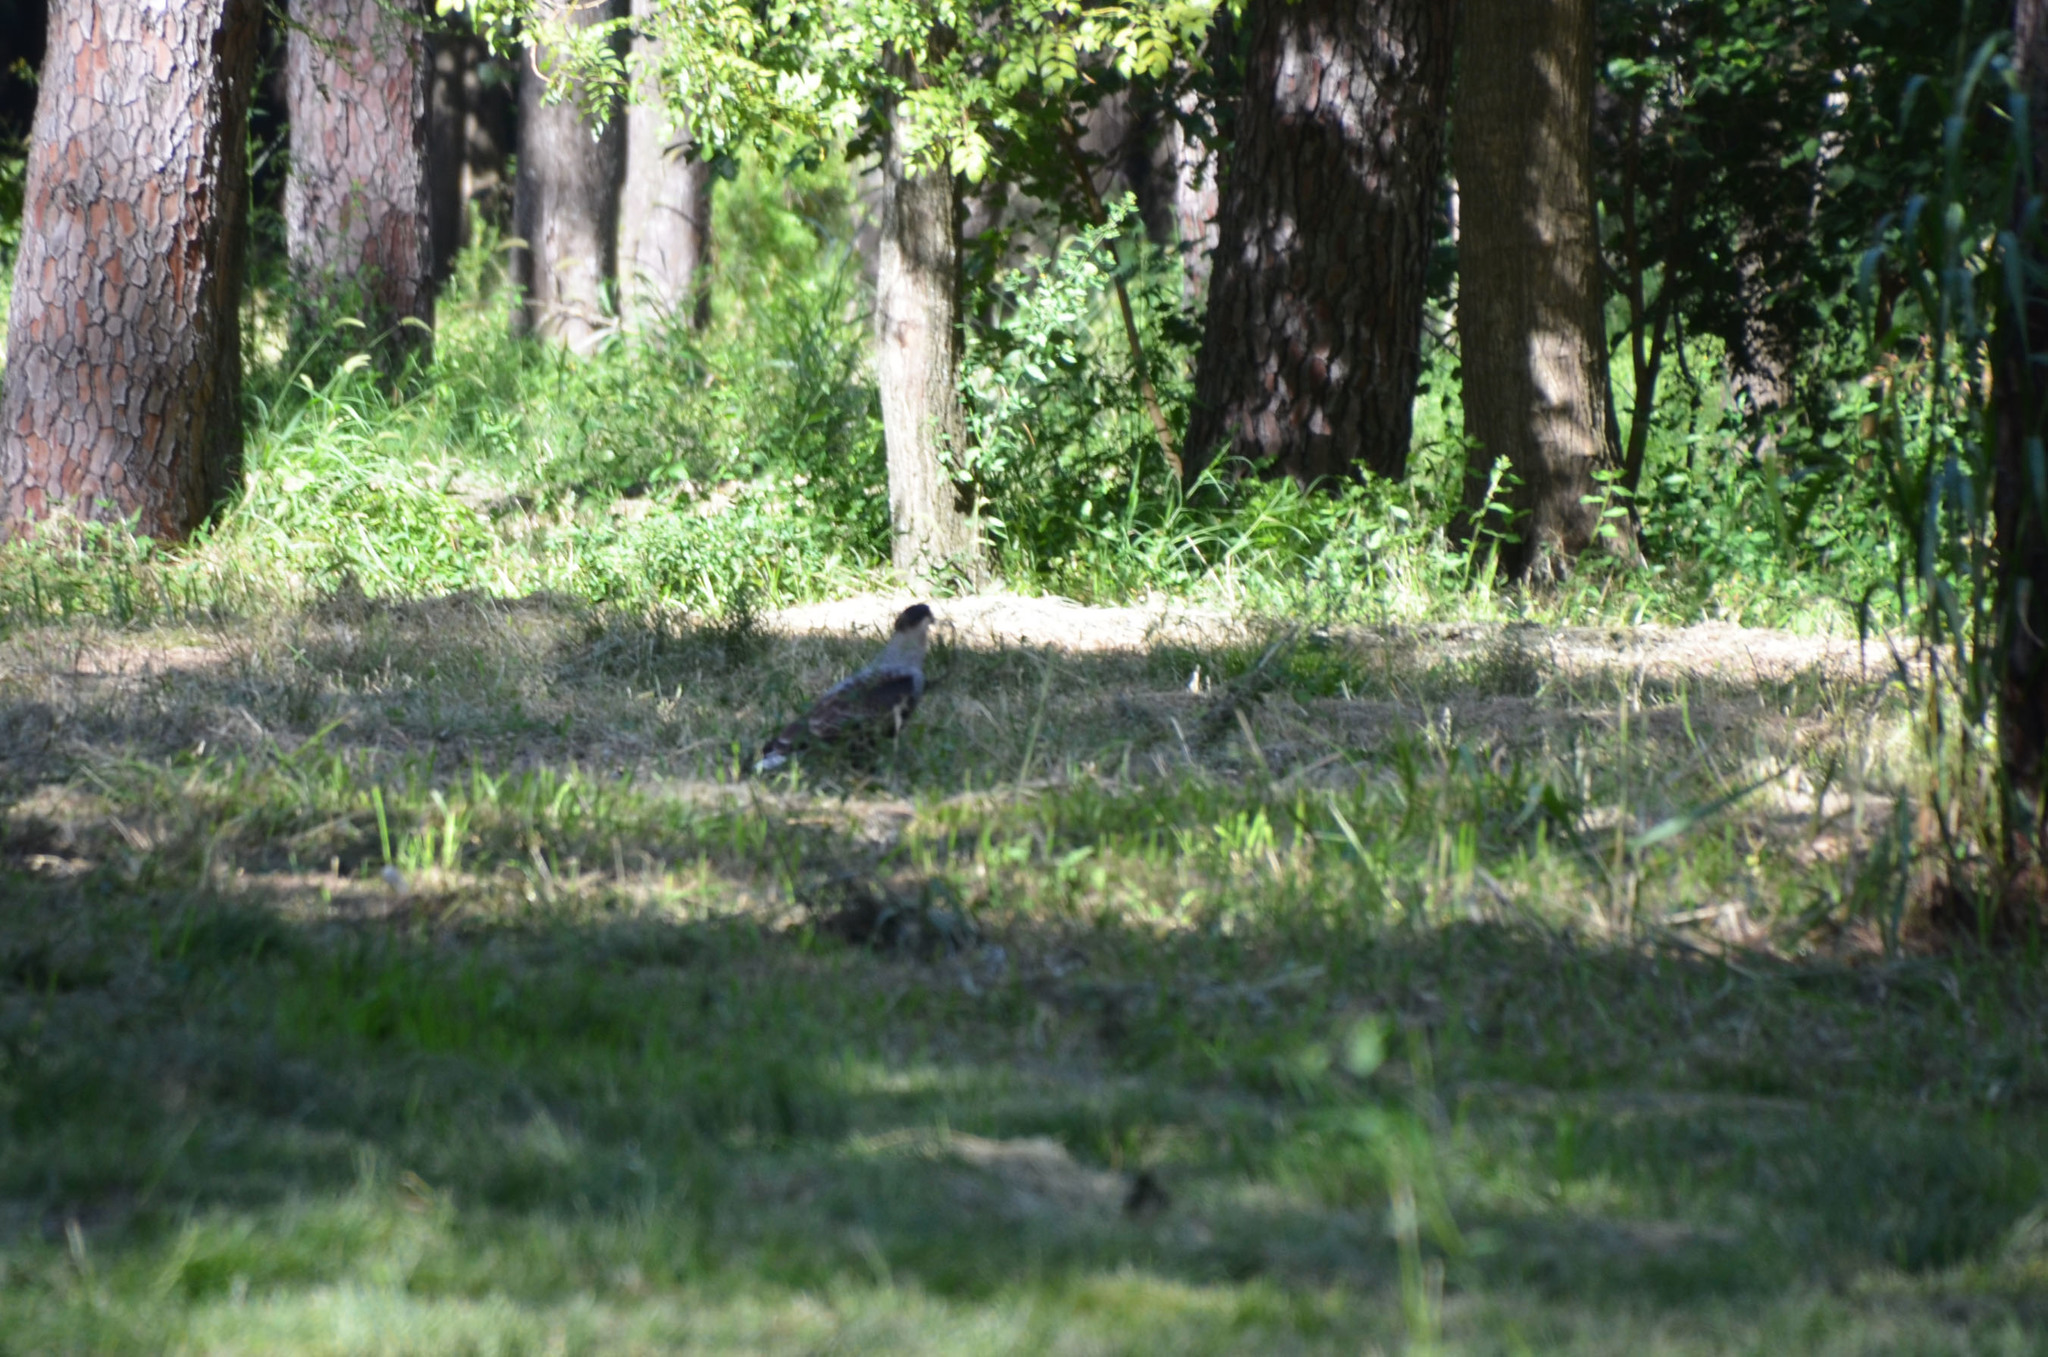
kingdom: Animalia
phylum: Chordata
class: Aves
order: Falconiformes
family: Falconidae
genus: Caracara
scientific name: Caracara plancus
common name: Southern caracara
